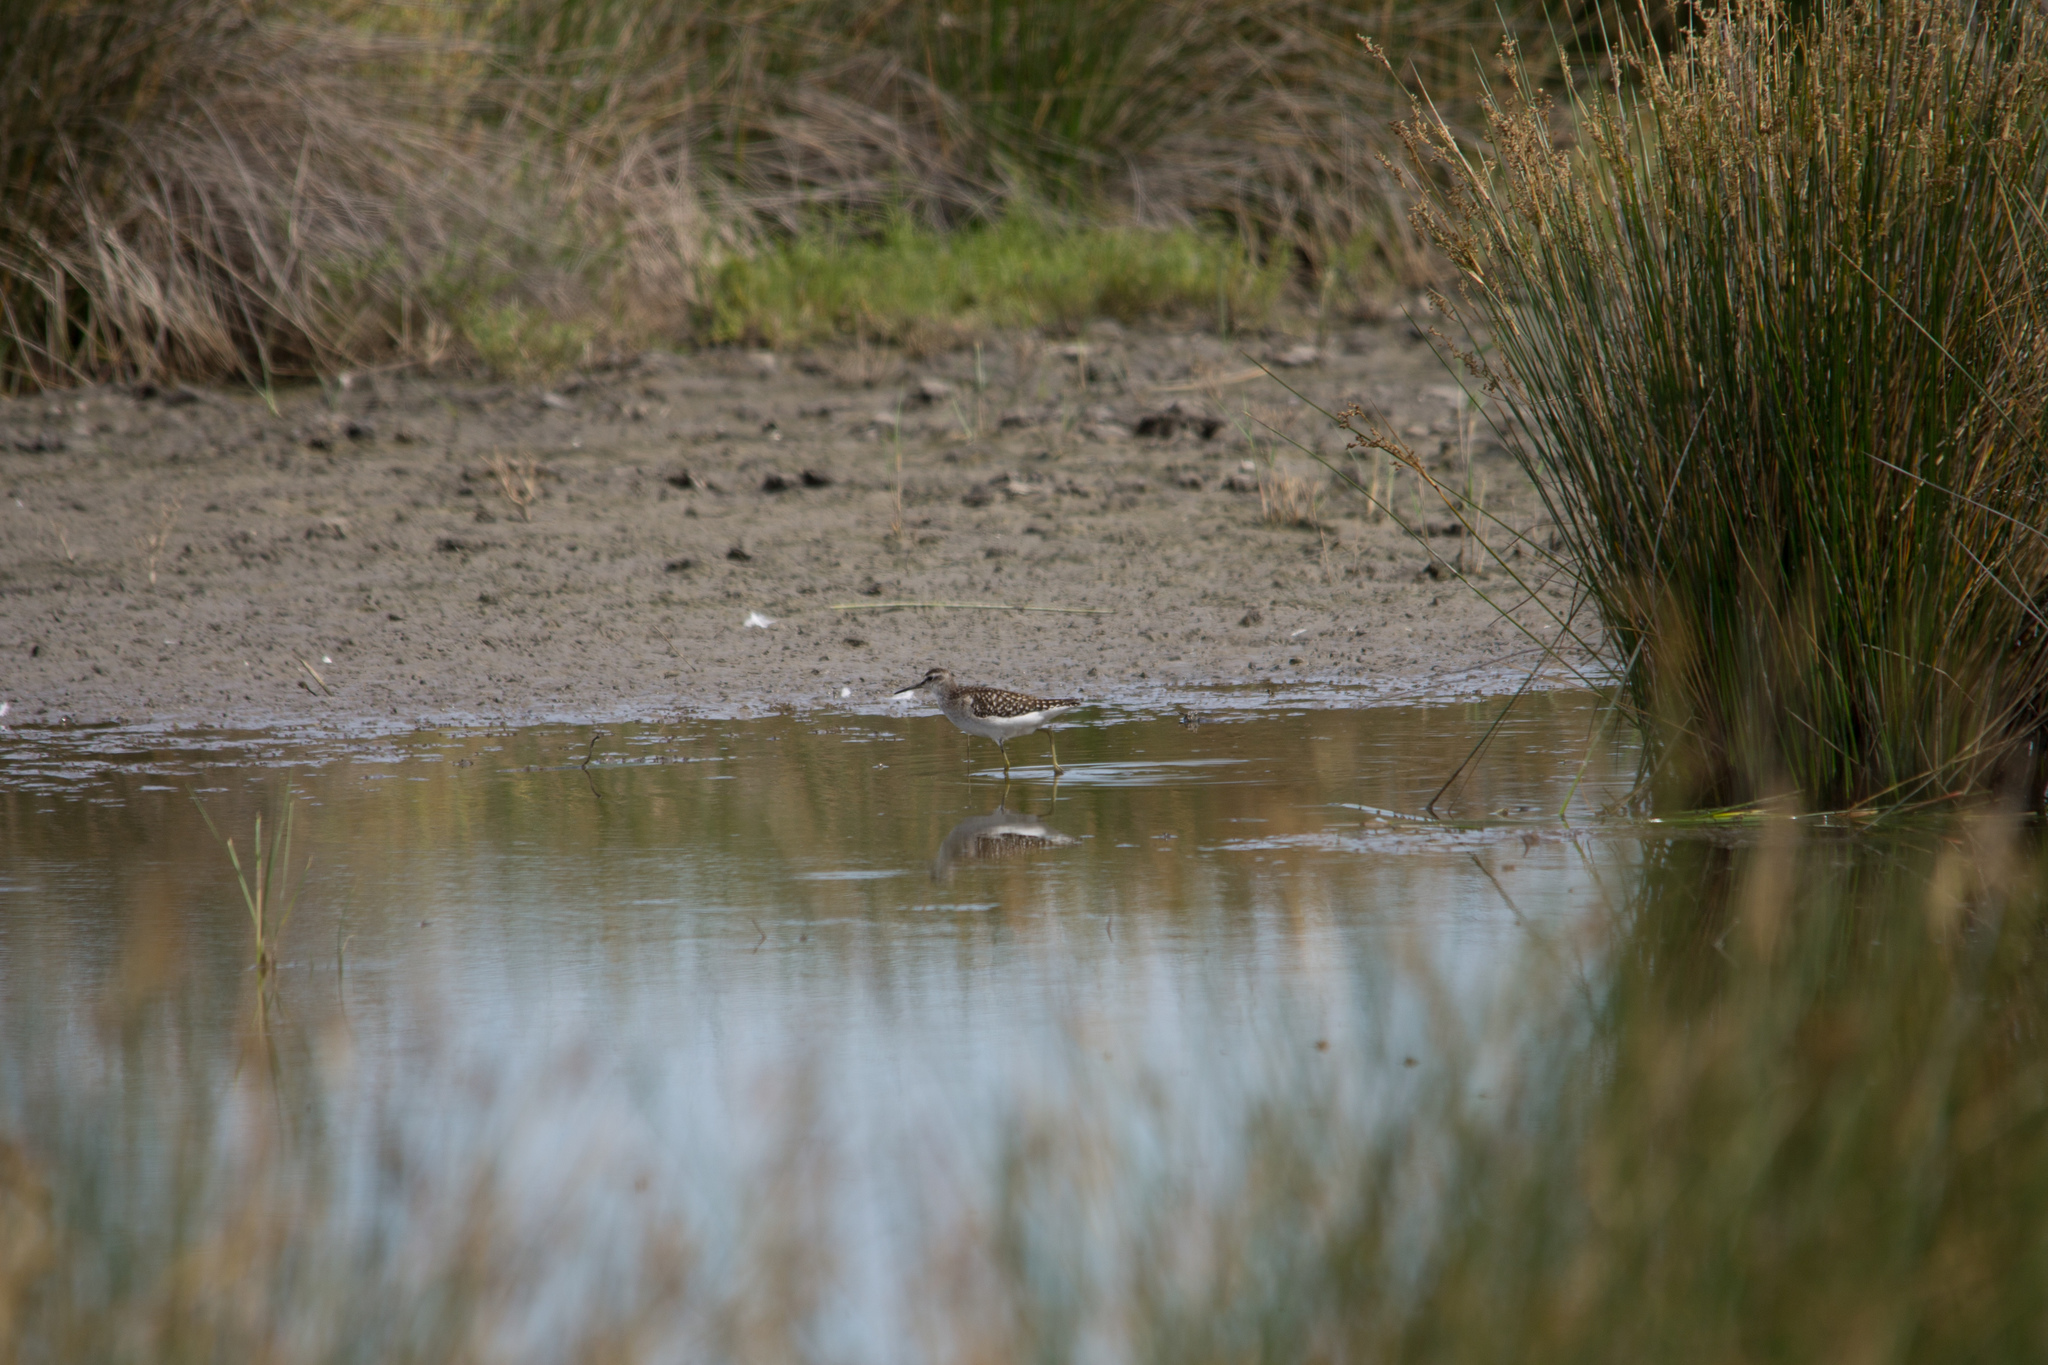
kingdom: Animalia
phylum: Chordata
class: Aves
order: Charadriiformes
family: Scolopacidae
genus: Tringa
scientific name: Tringa glareola
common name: Wood sandpiper
